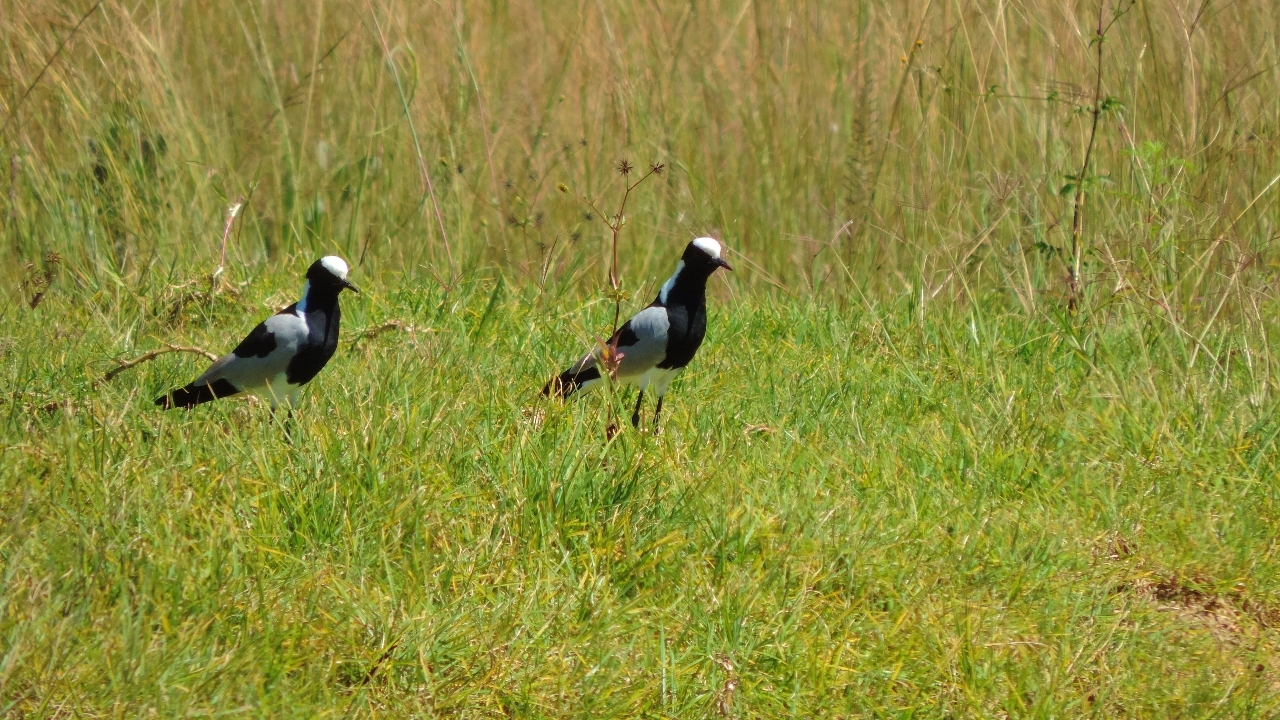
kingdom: Animalia
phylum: Chordata
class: Aves
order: Charadriiformes
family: Charadriidae
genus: Vanellus
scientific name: Vanellus armatus
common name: Blacksmith lapwing
